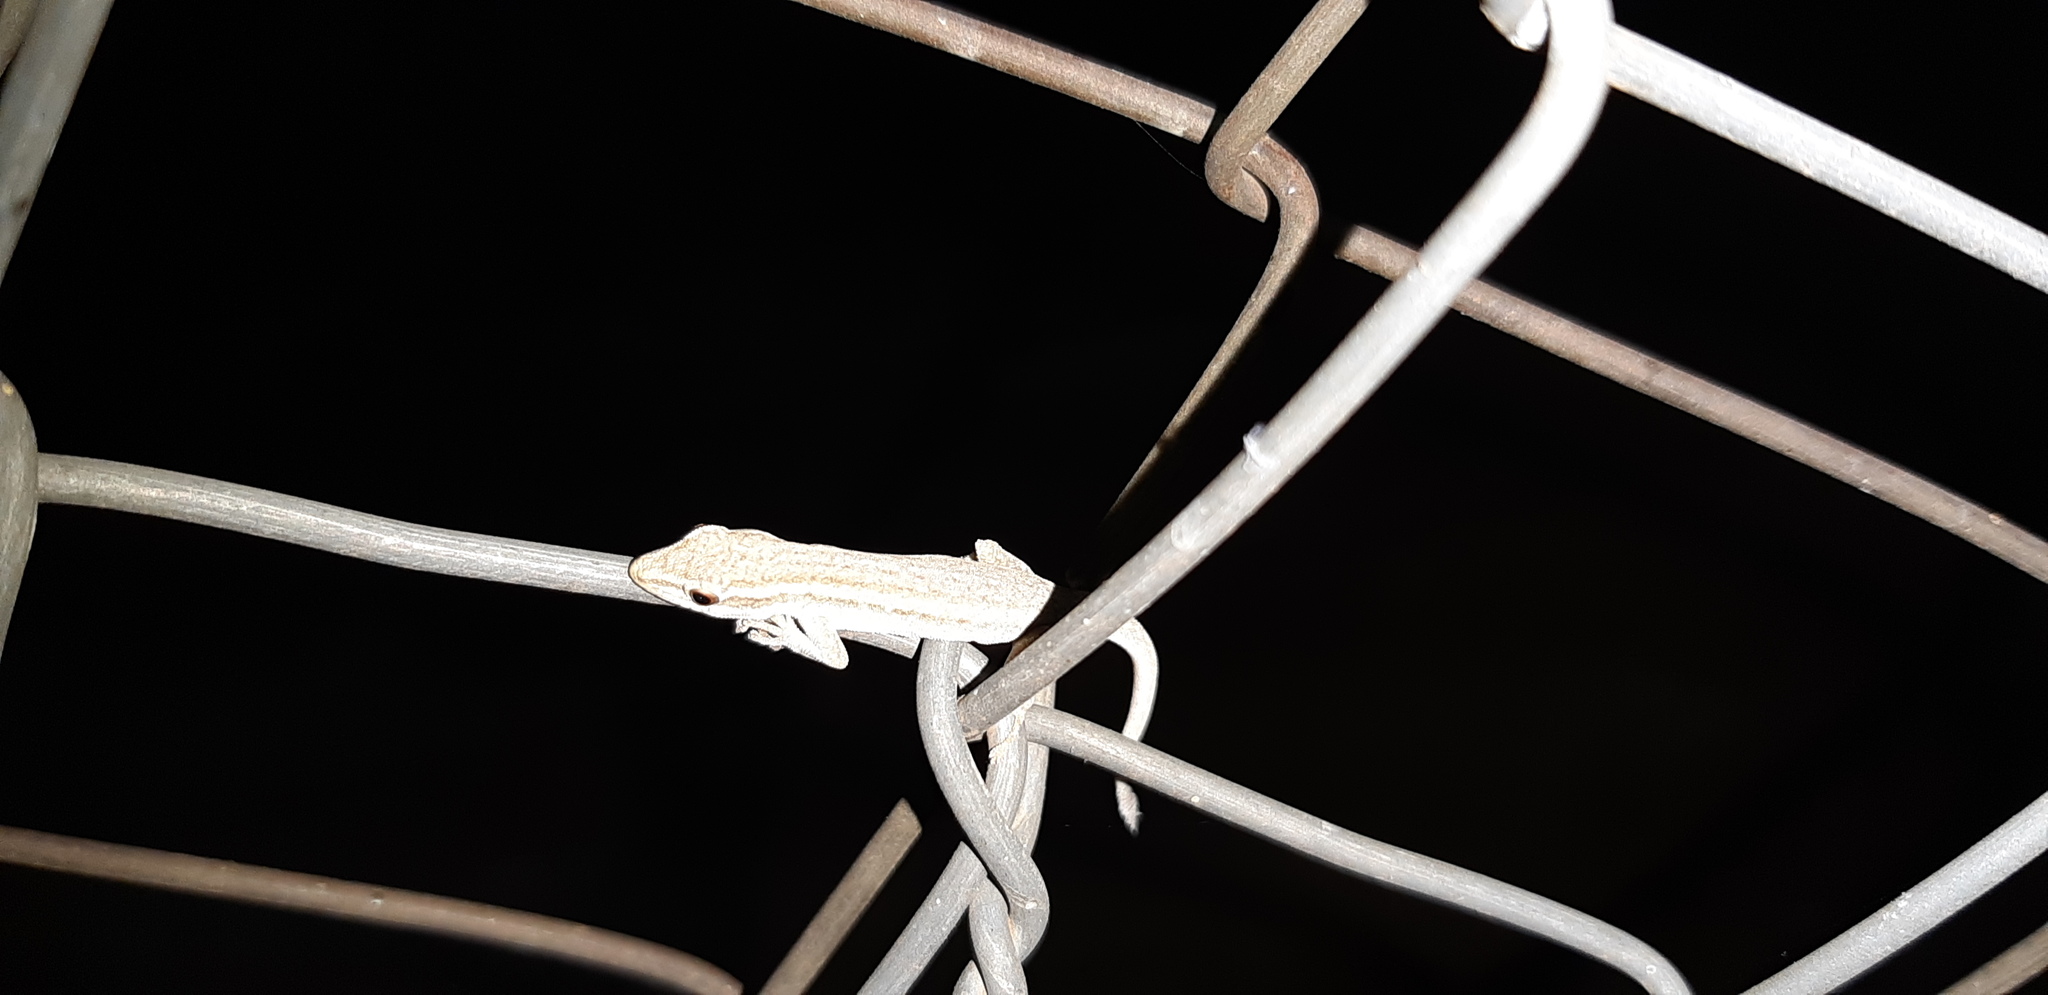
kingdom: Animalia
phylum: Chordata
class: Squamata
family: Gekkonidae
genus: Lygodactylus
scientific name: Lygodactylus capensis
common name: Cape dwarf gecko
